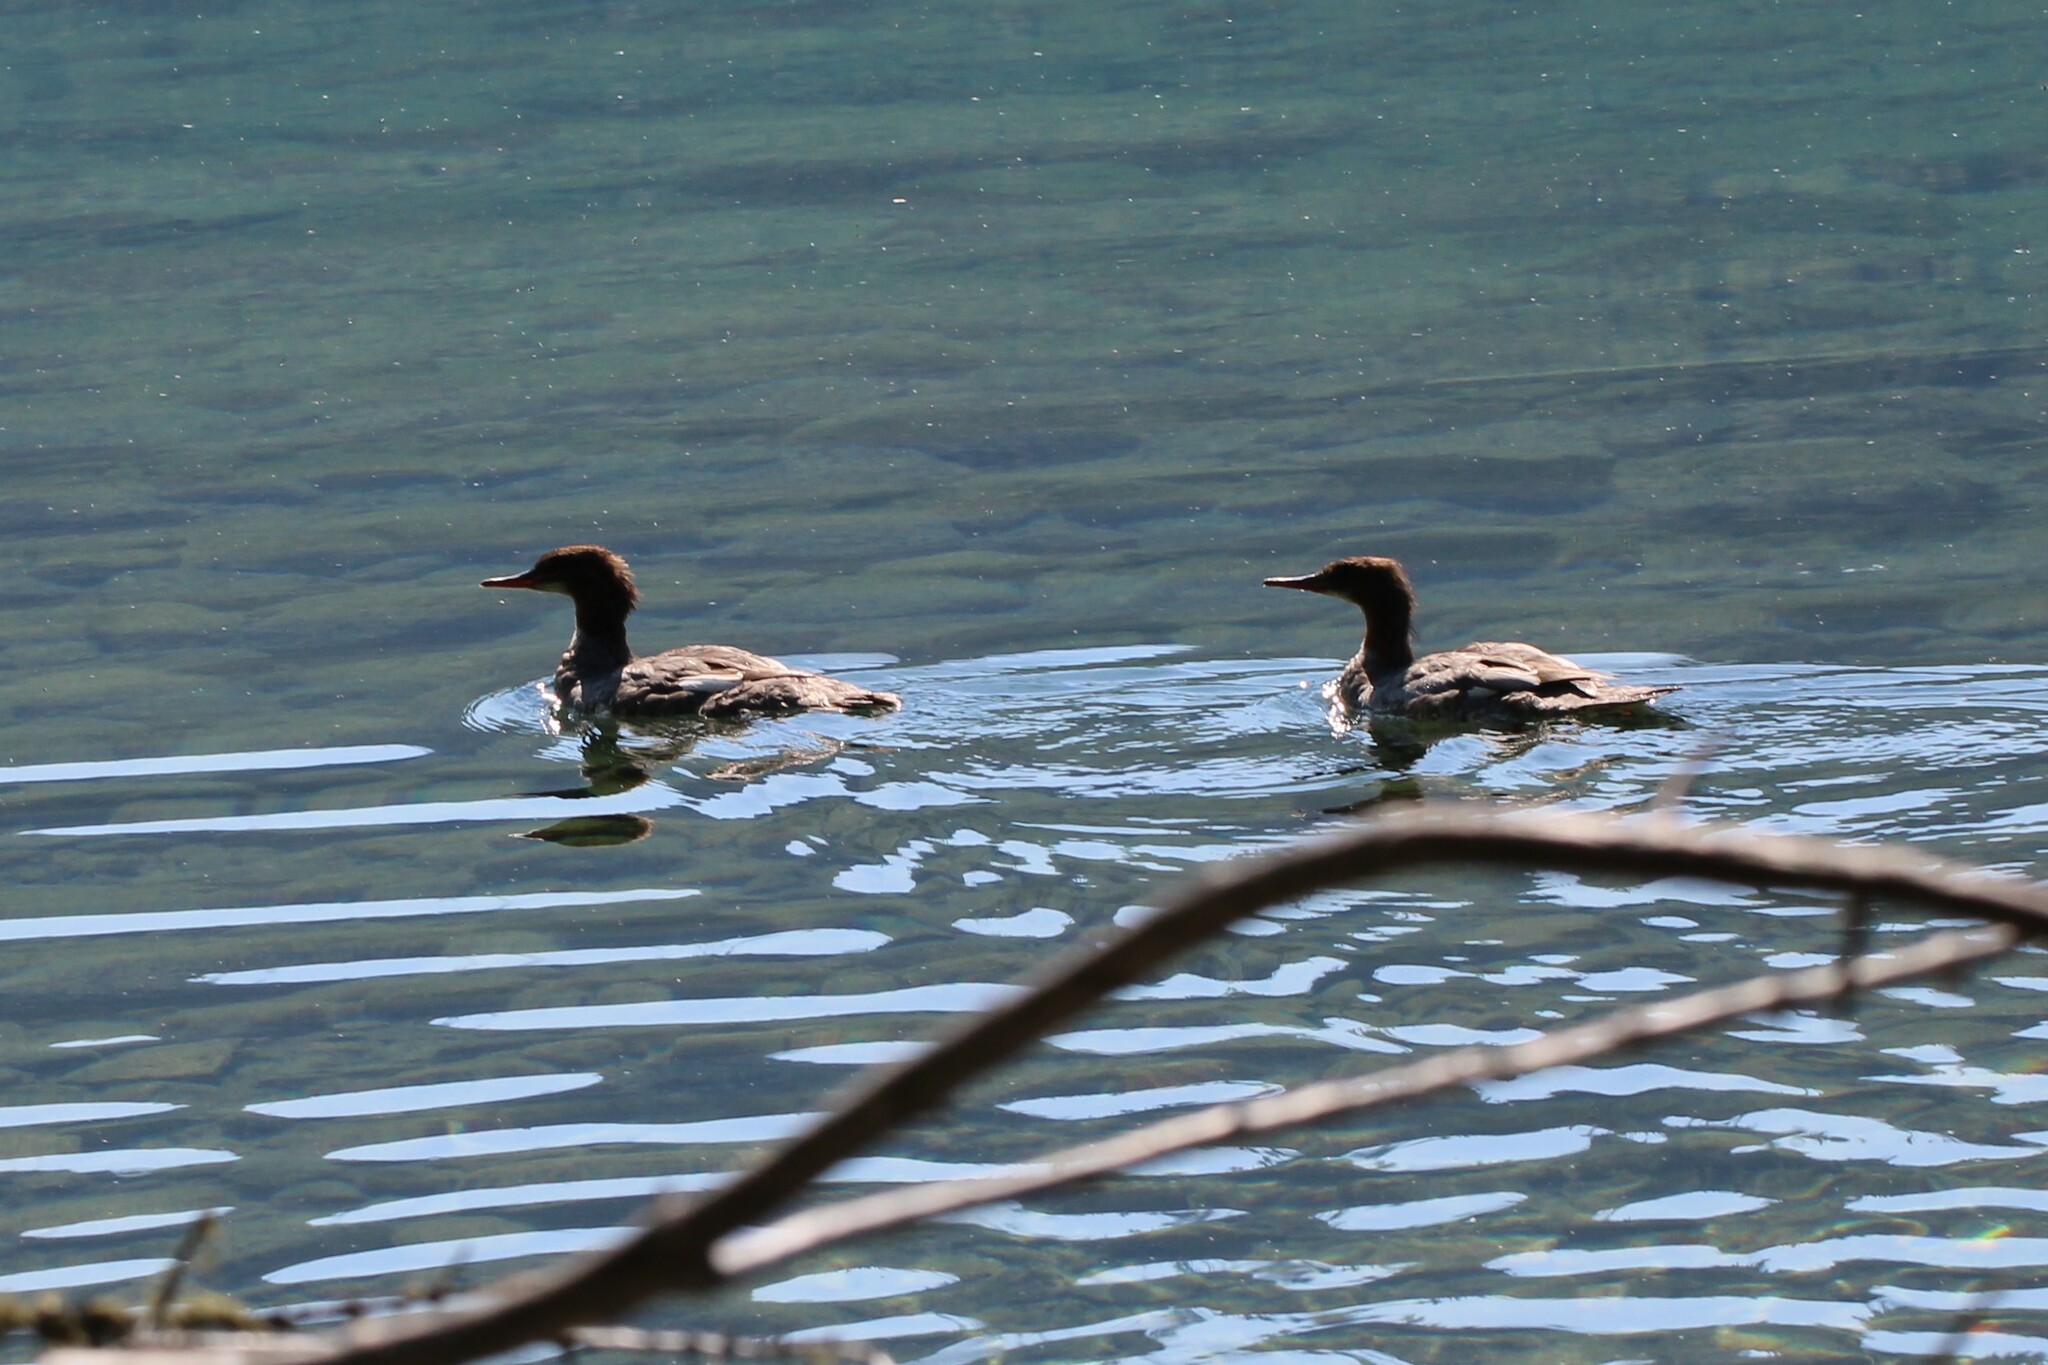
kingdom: Animalia
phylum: Chordata
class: Aves
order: Anseriformes
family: Anatidae
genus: Mergus
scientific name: Mergus merganser
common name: Common merganser
